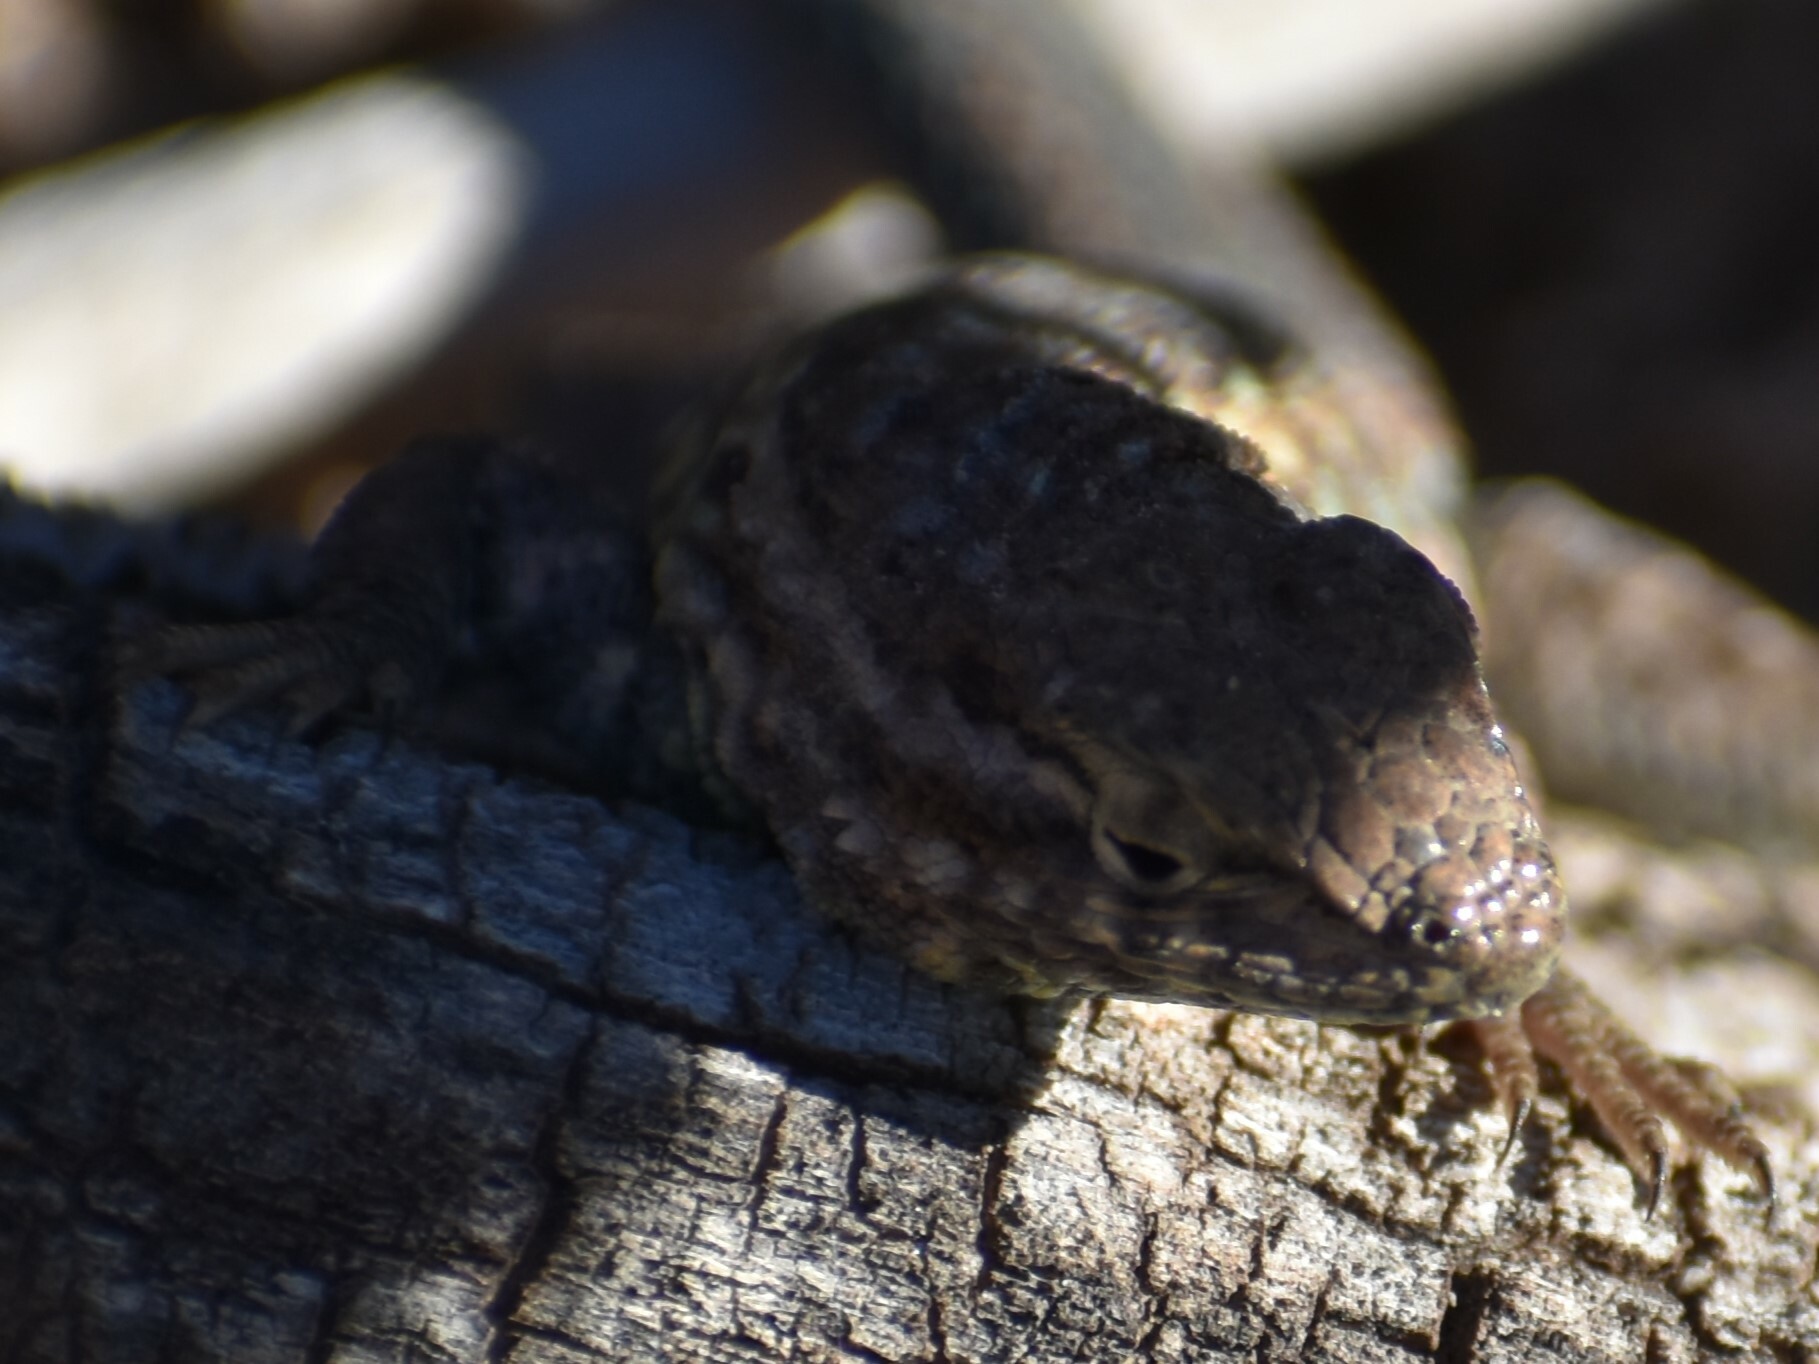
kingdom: Animalia
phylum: Chordata
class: Squamata
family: Phrynosomatidae
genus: Uta
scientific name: Uta stansburiana
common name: Side-blotched lizard
